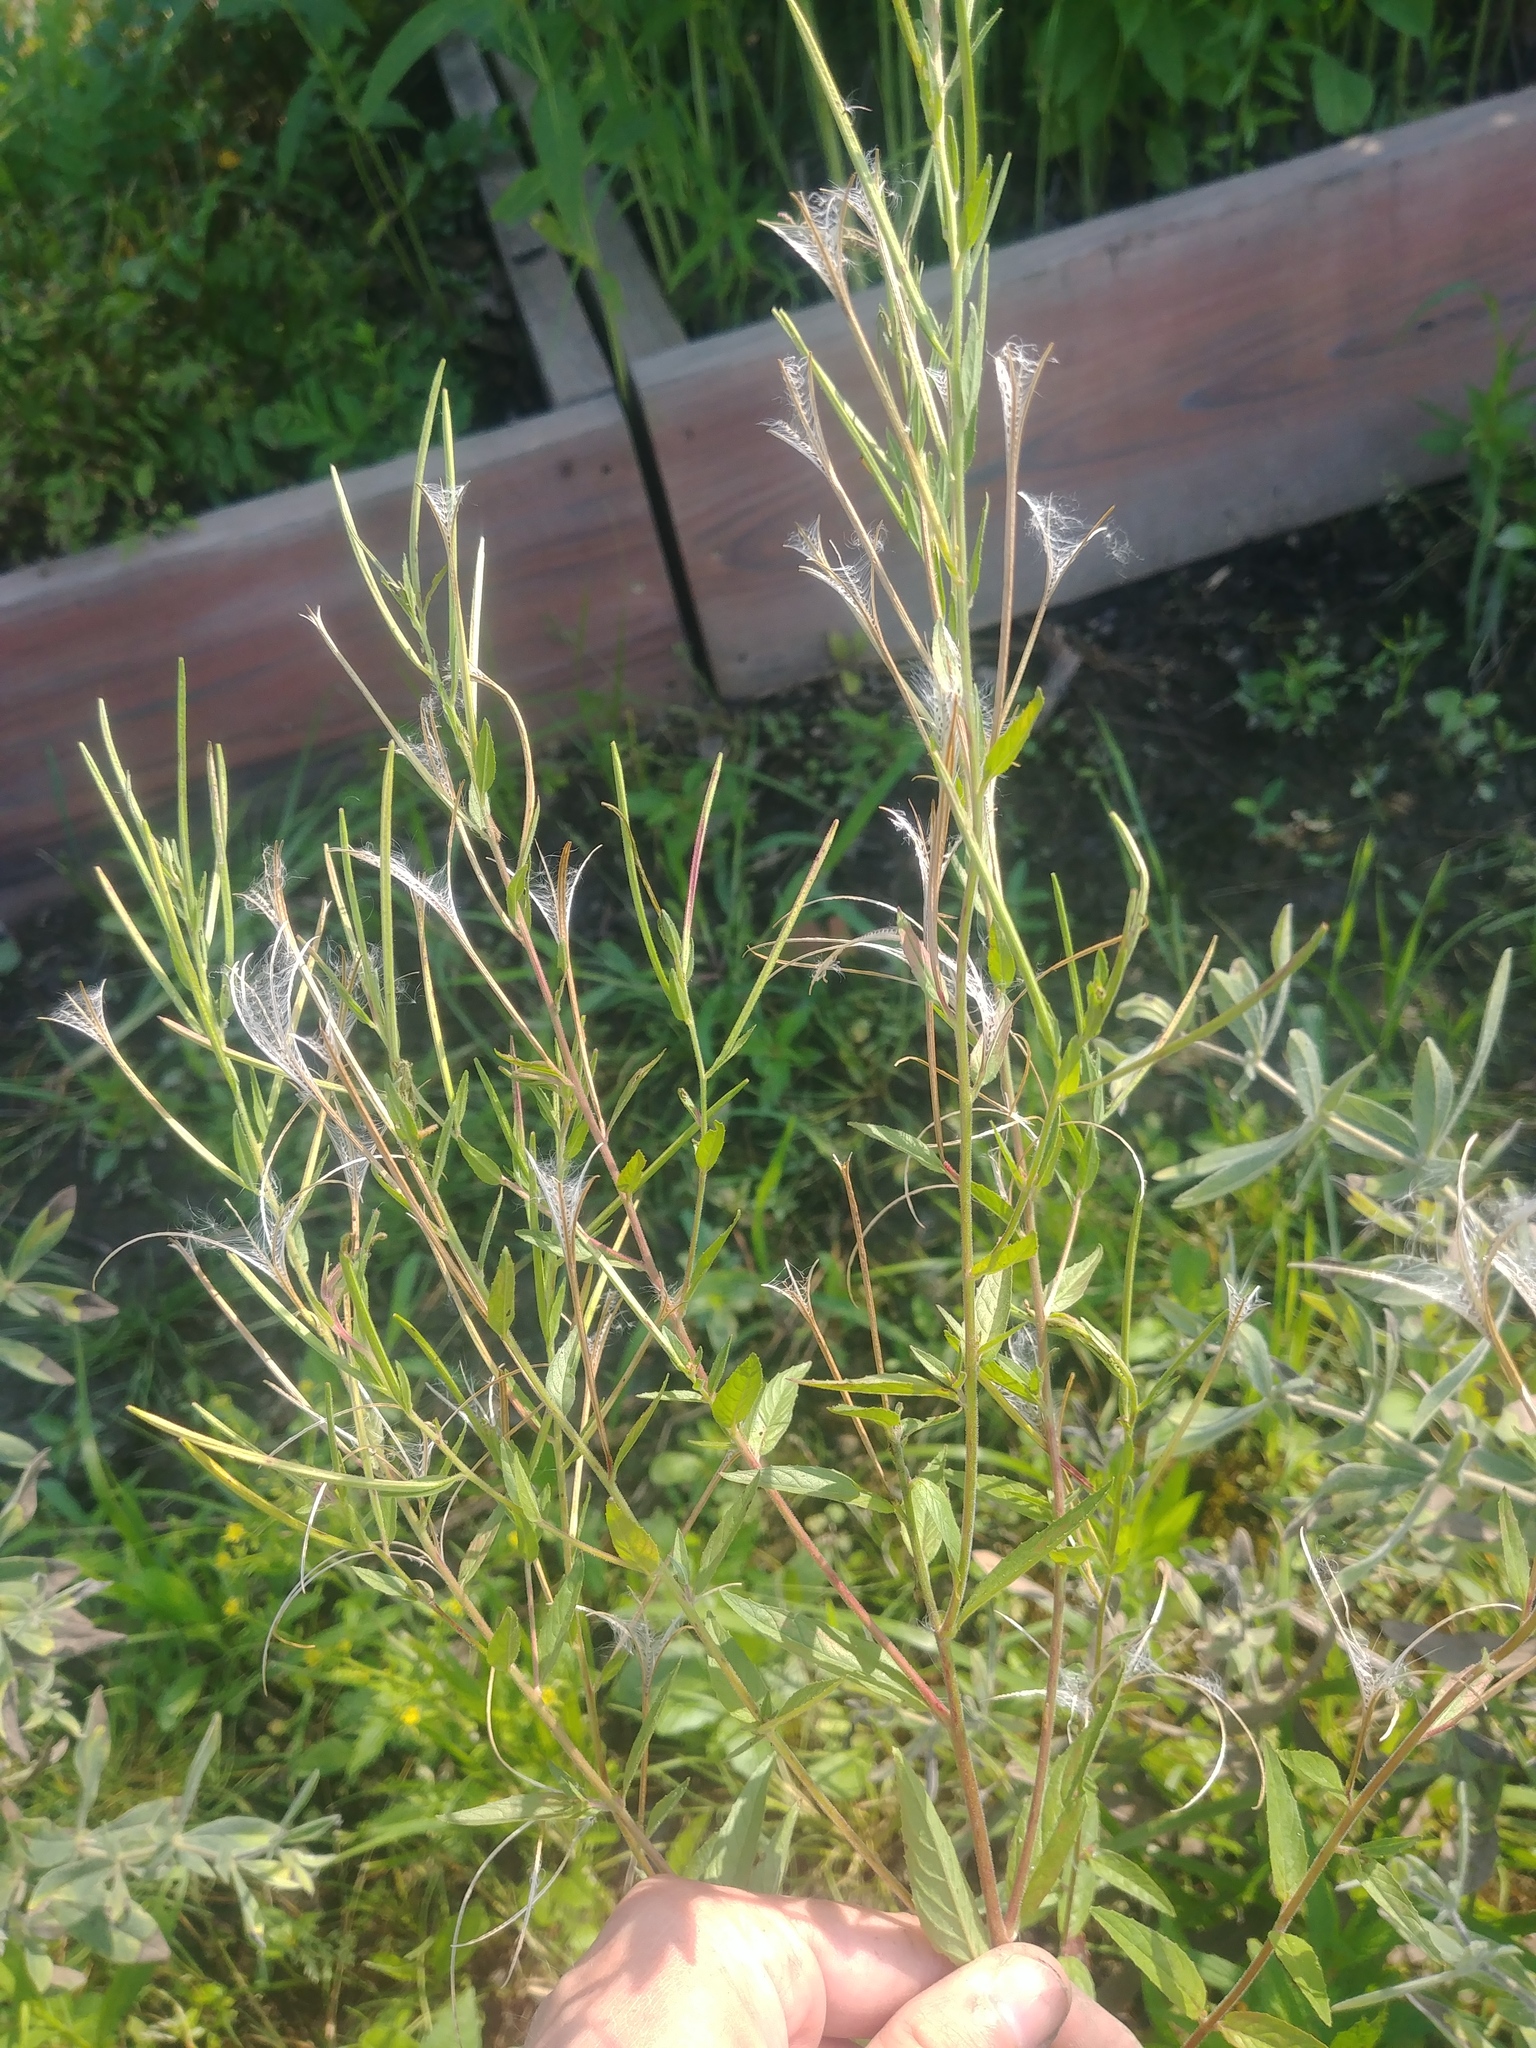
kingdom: Plantae
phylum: Tracheophyta
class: Magnoliopsida
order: Myrtales
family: Onagraceae
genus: Epilobium
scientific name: Epilobium ciliatum
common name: American willowherb
